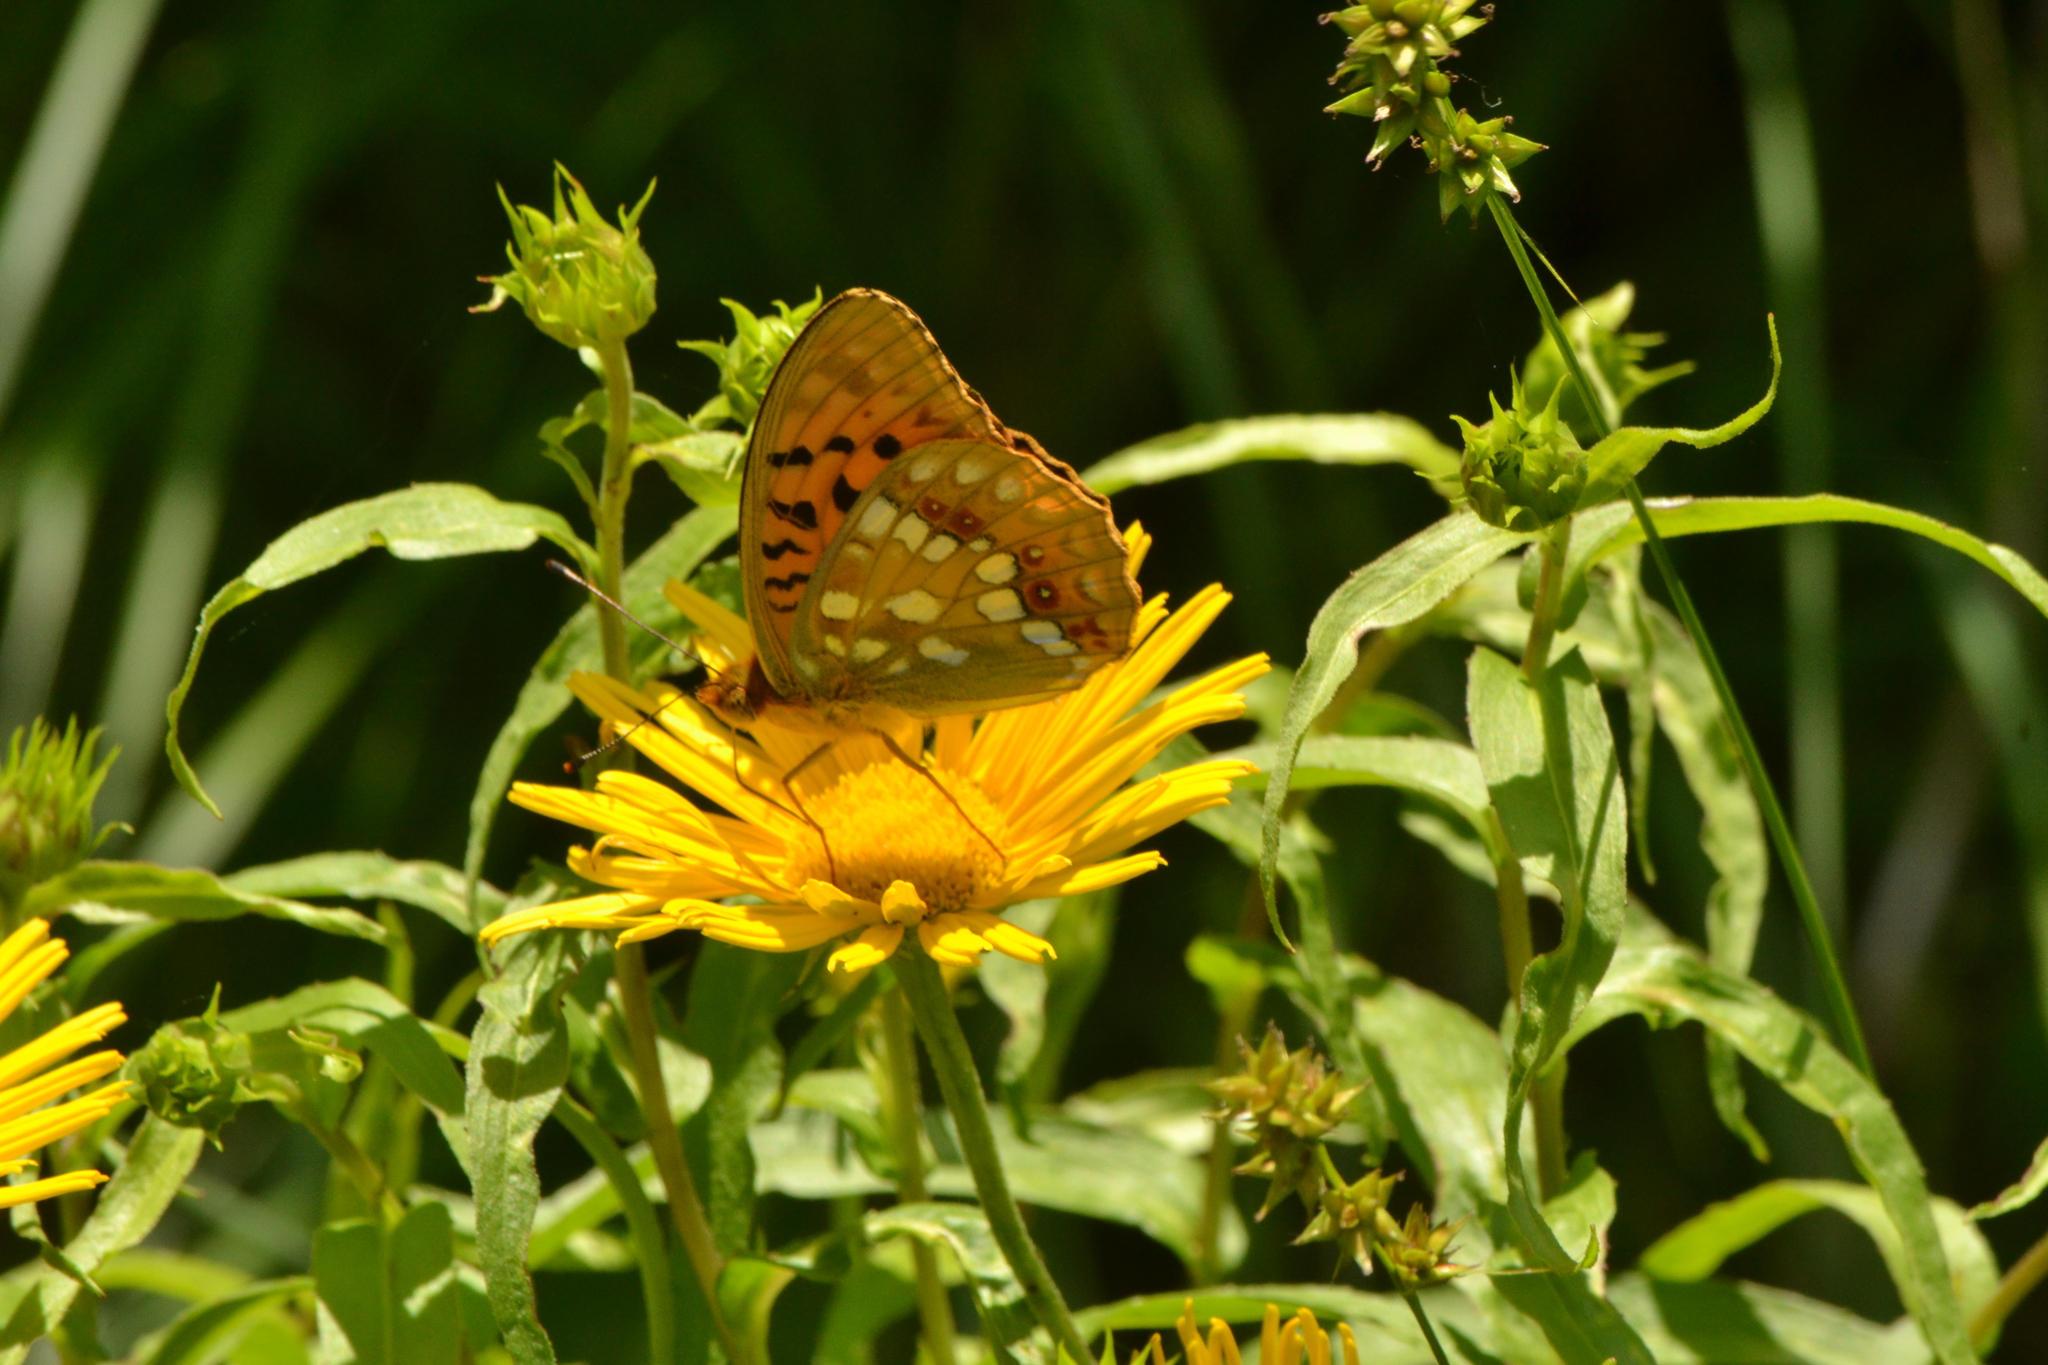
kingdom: Animalia
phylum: Arthropoda
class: Insecta
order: Lepidoptera
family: Nymphalidae
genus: Fabriciana
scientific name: Fabriciana adippe
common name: High brown fritillary
